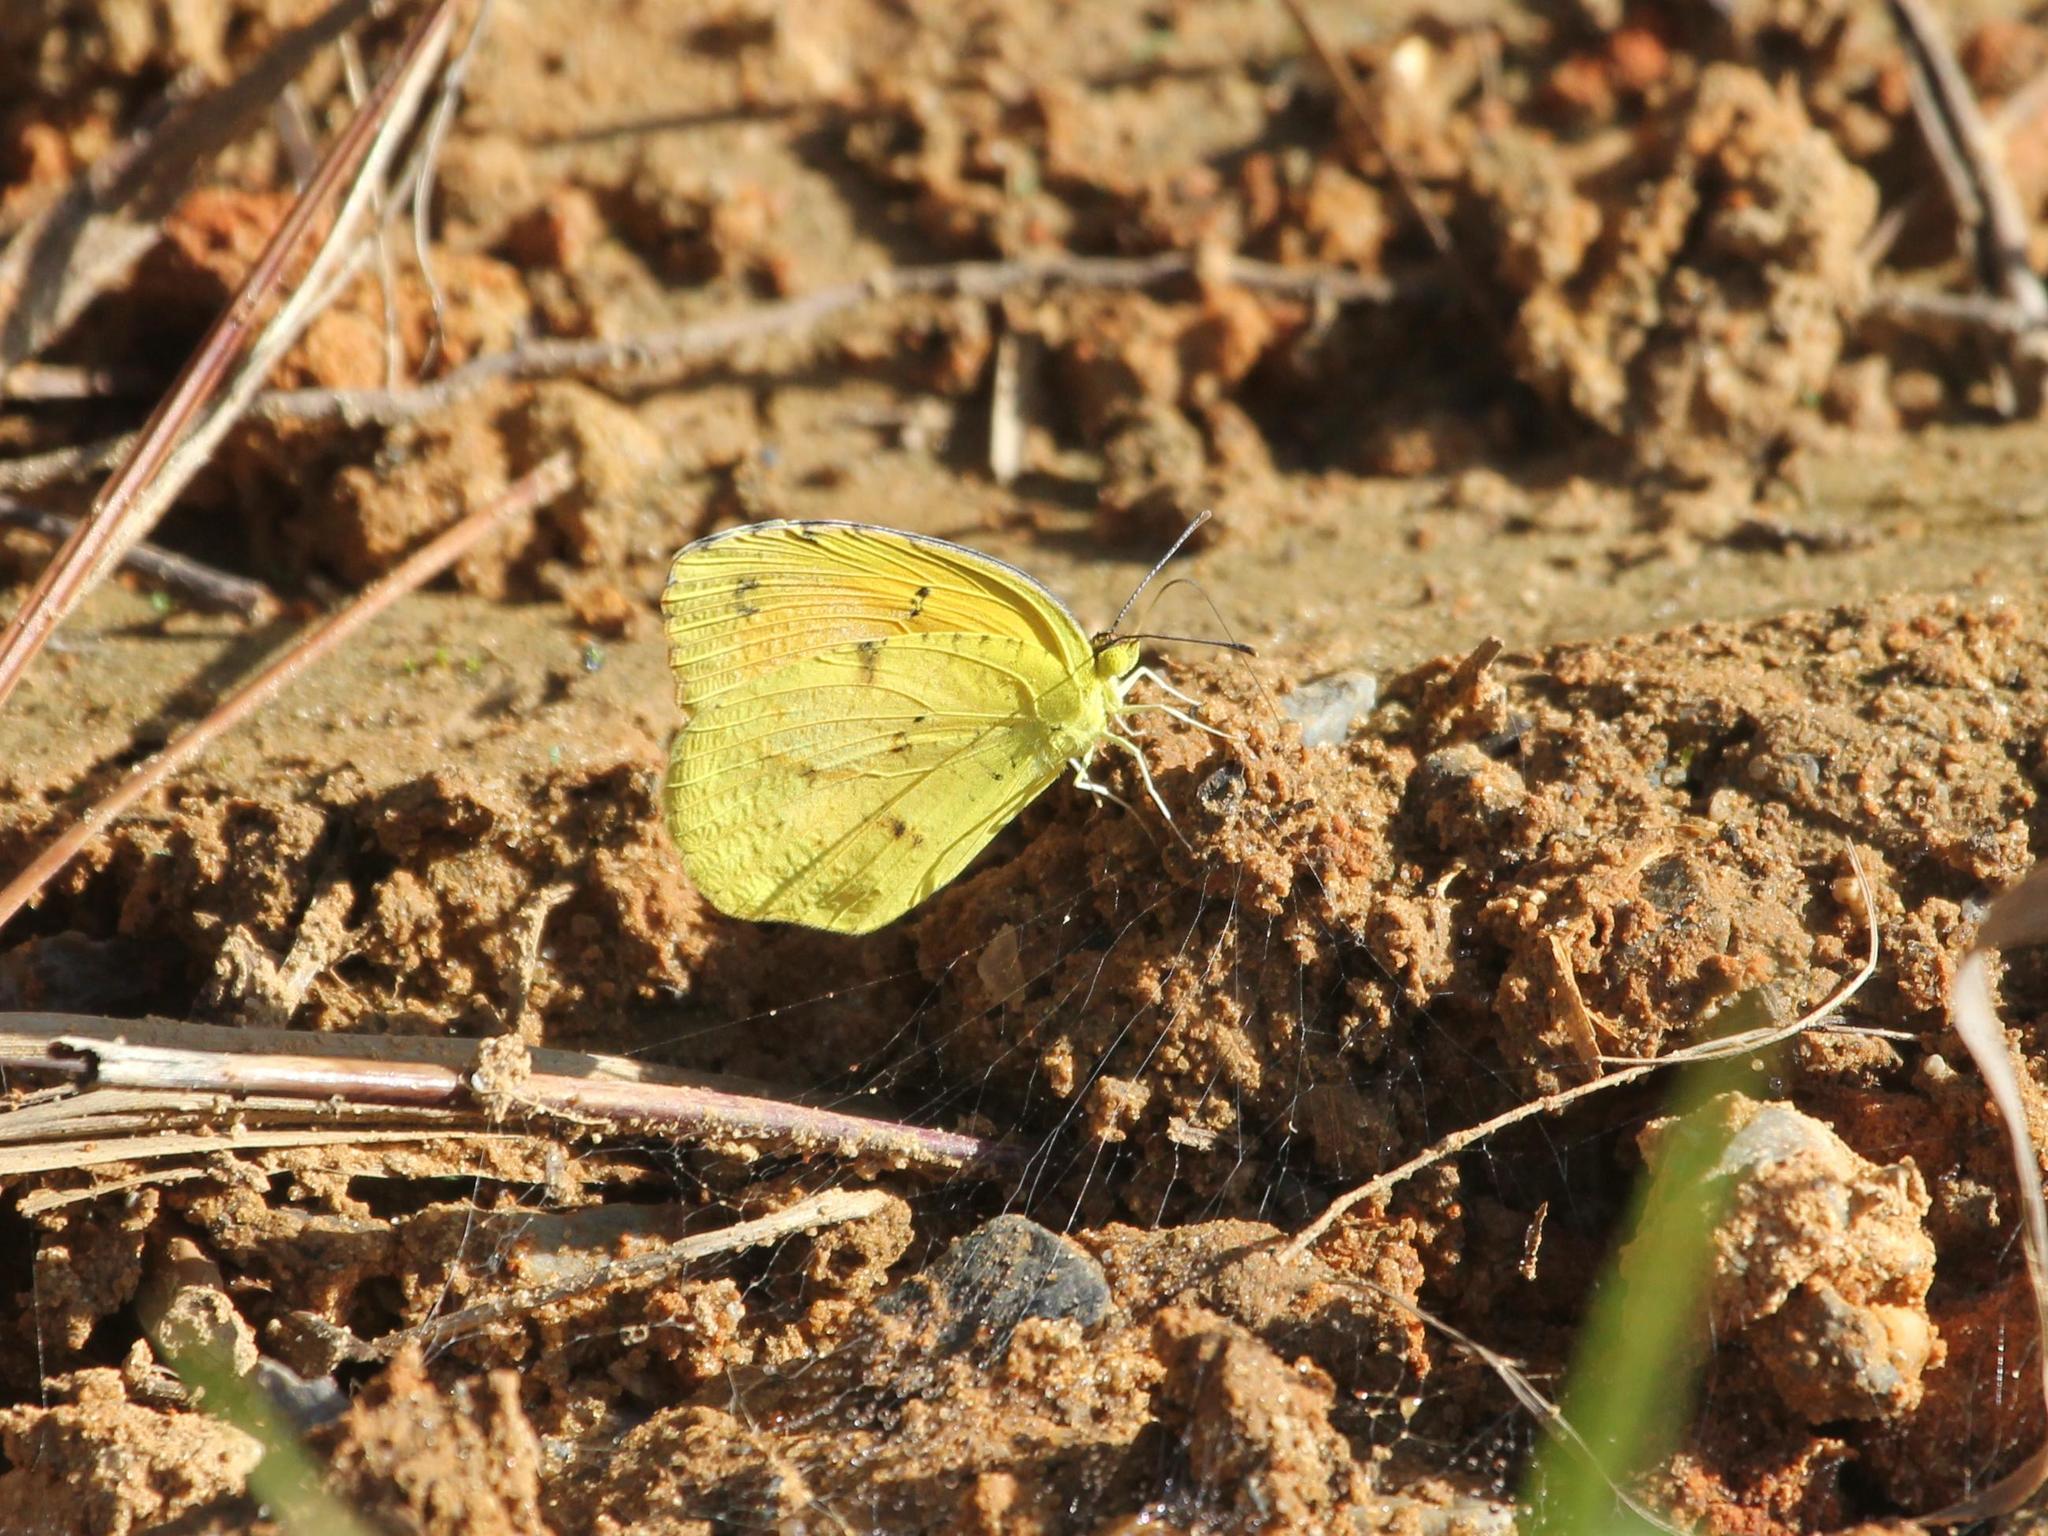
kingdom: Animalia
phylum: Arthropoda
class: Insecta
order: Lepidoptera
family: Pieridae
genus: Abaeis
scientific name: Abaeis nicippe
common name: Sleepy orange
